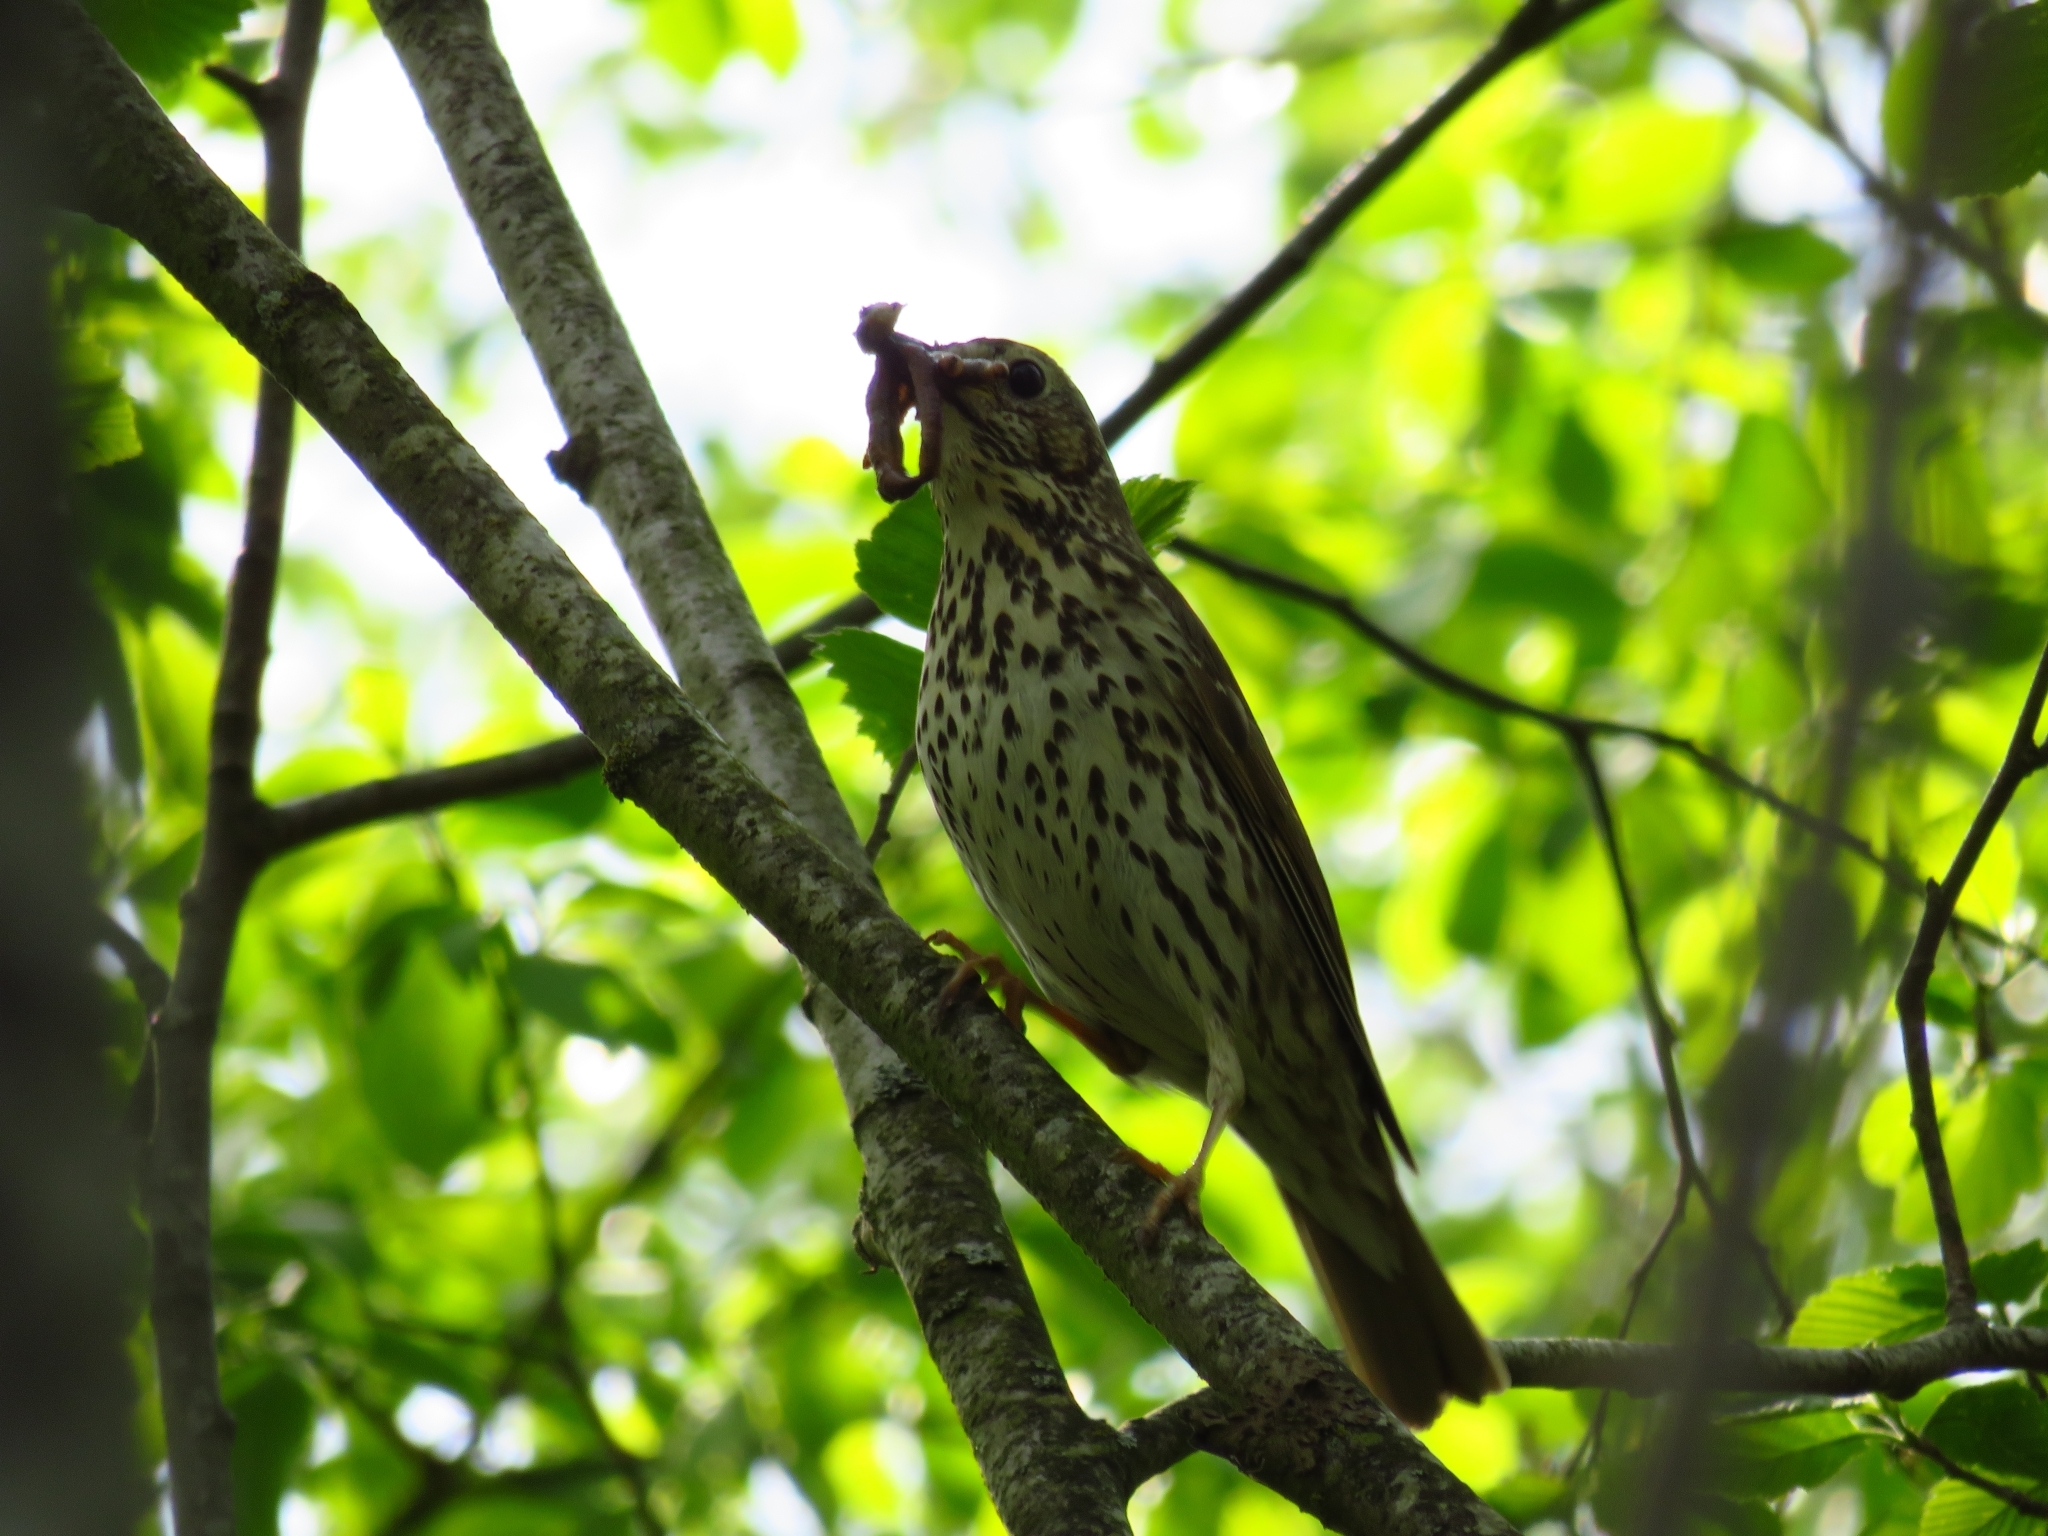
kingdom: Animalia
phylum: Chordata
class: Aves
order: Passeriformes
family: Turdidae
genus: Turdus
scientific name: Turdus philomelos
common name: Song thrush
